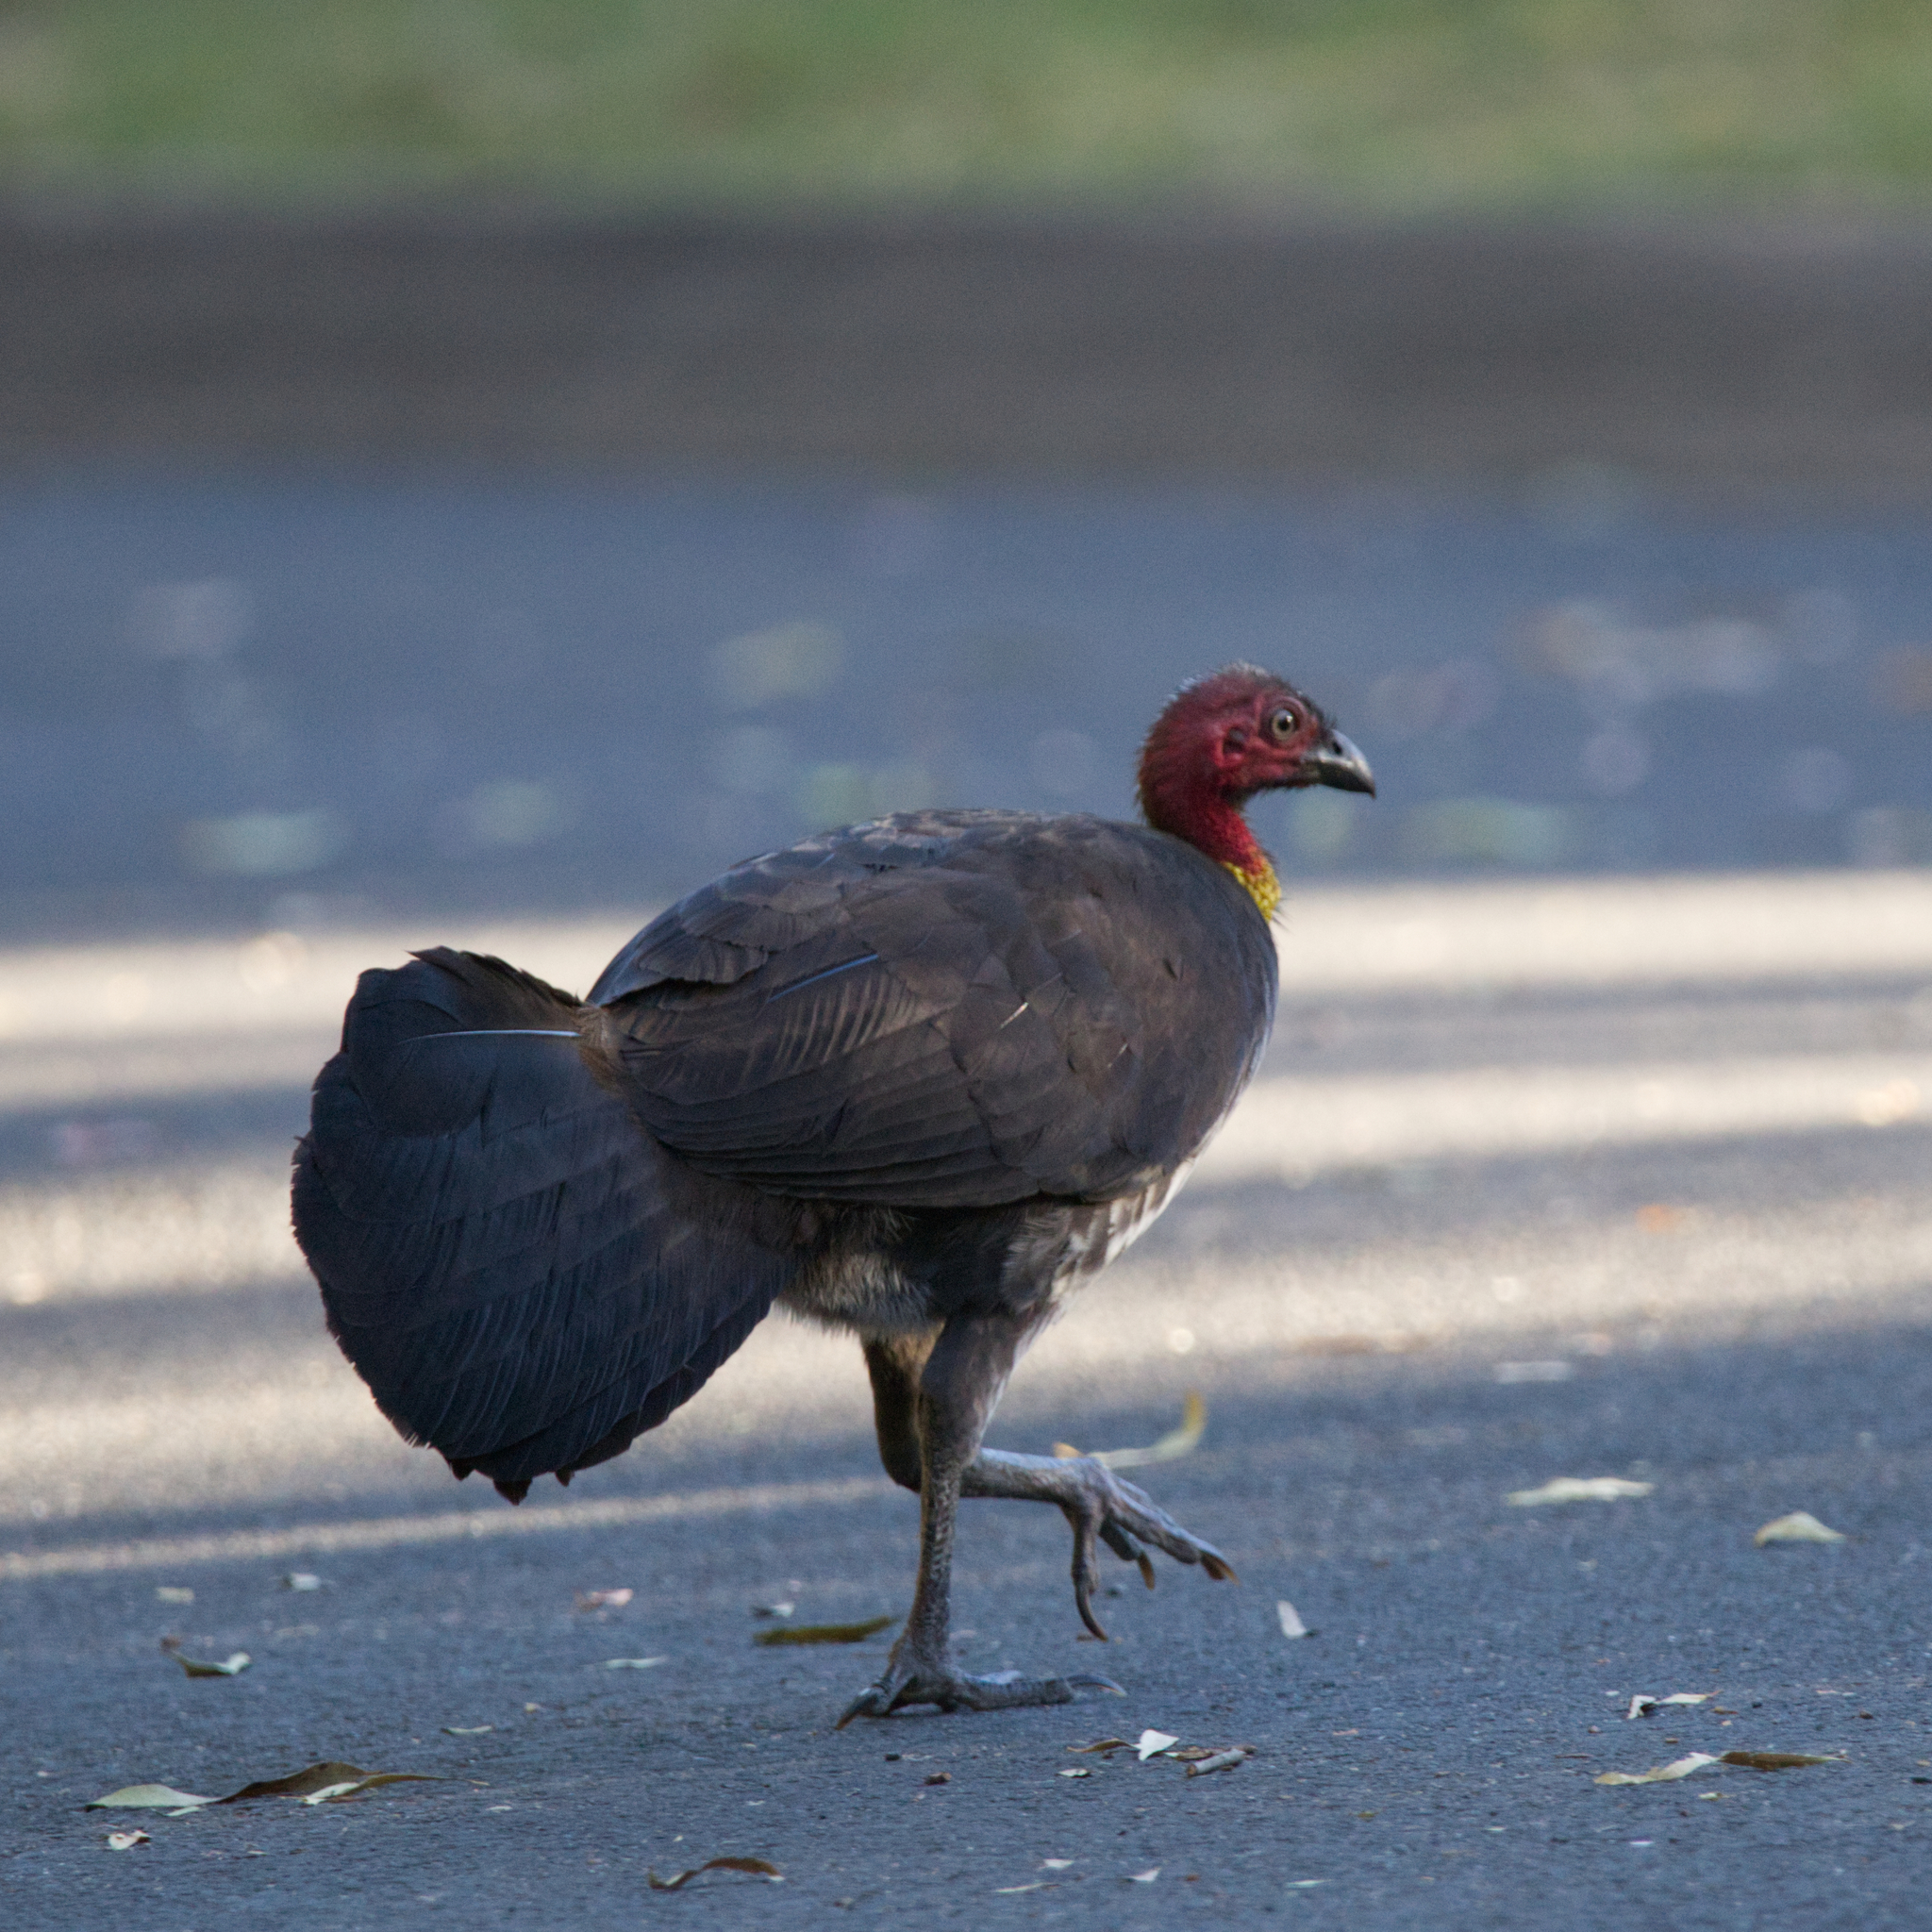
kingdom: Animalia
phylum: Chordata
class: Aves
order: Galliformes
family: Megapodiidae
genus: Alectura
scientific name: Alectura lathami
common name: Australian brushturkey
